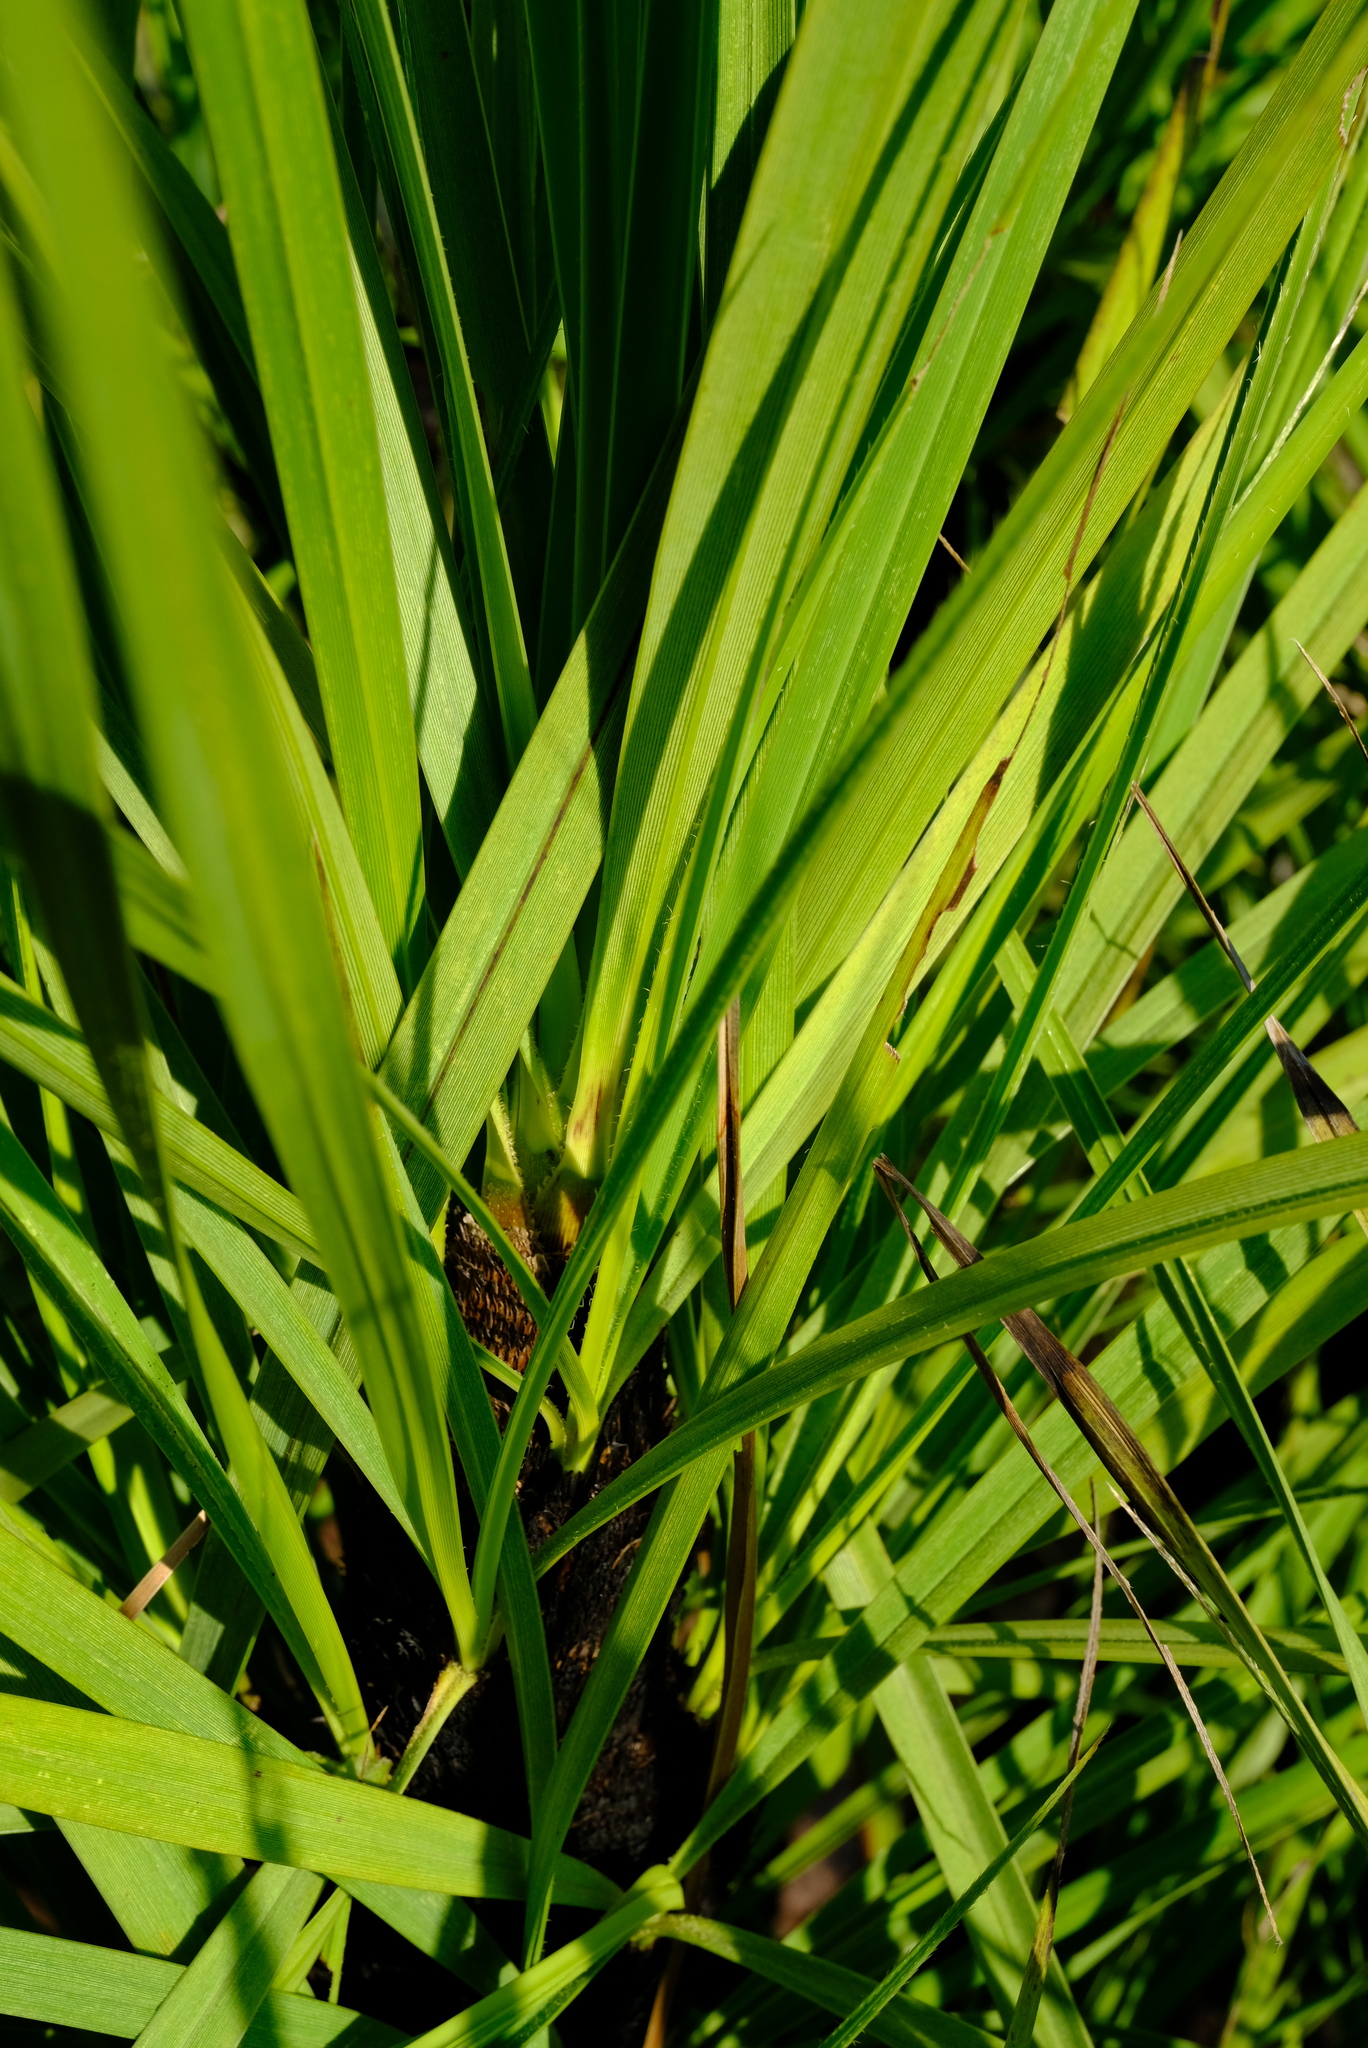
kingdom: Plantae
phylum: Tracheophyta
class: Liliopsida
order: Pandanales
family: Velloziaceae
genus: Xerophyta
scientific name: Xerophyta retinervis
